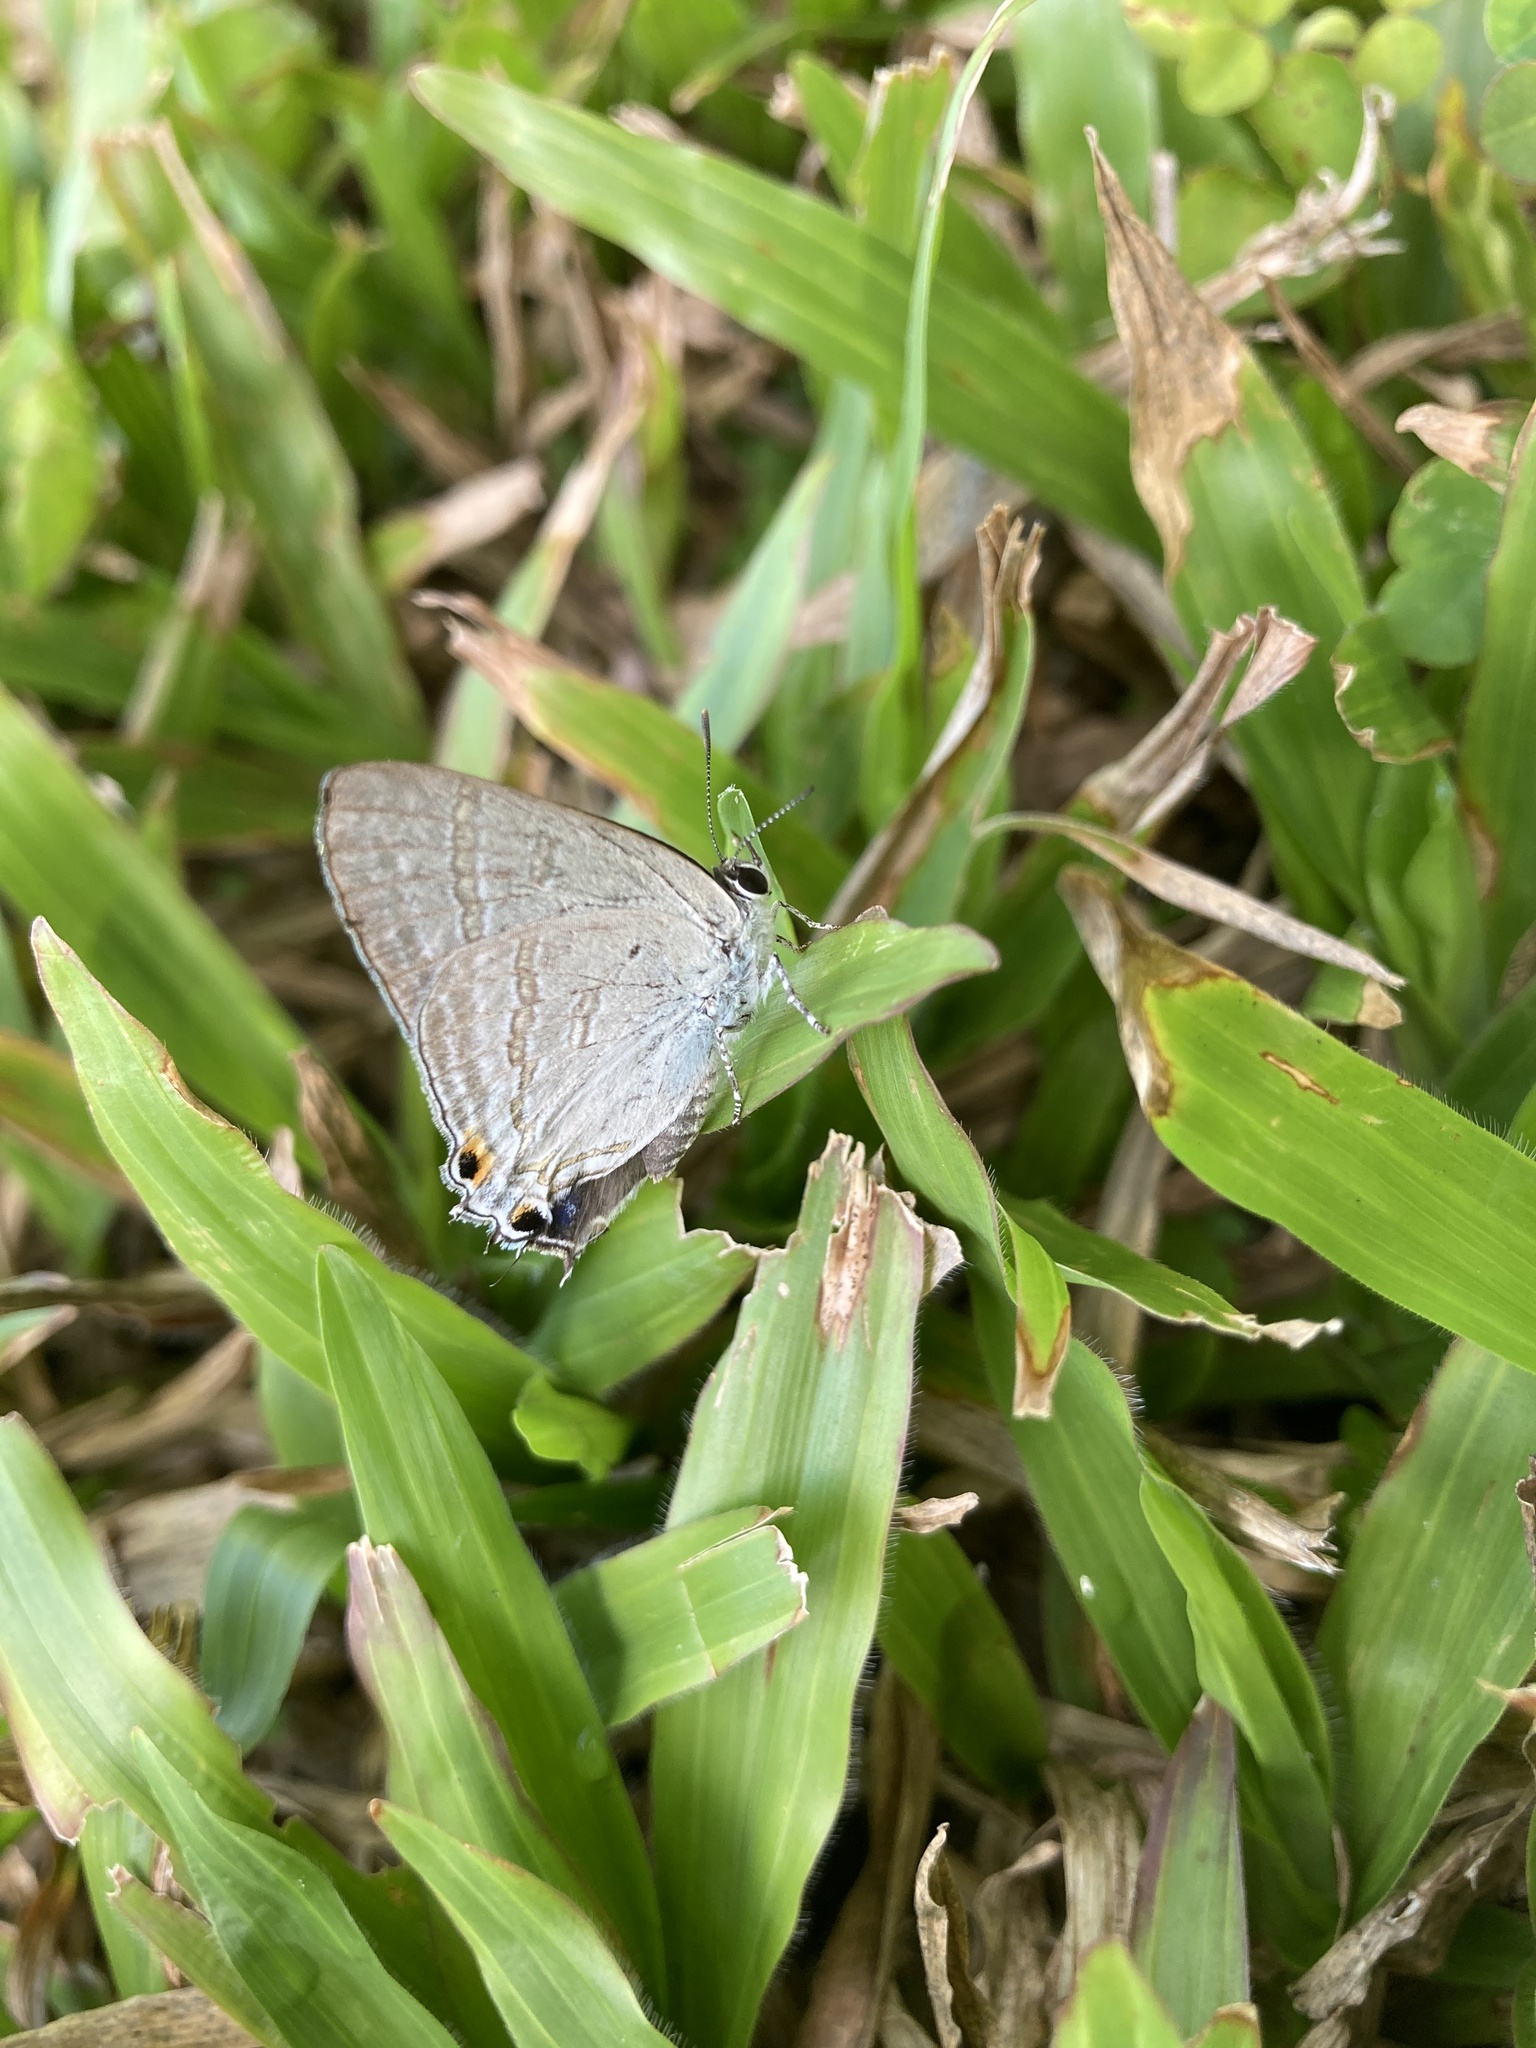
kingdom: Animalia
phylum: Arthropoda
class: Insecta
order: Lepidoptera
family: Lycaenidae
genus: Hypolycaena
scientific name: Hypolycaena phorbas
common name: Black-spotted flash
